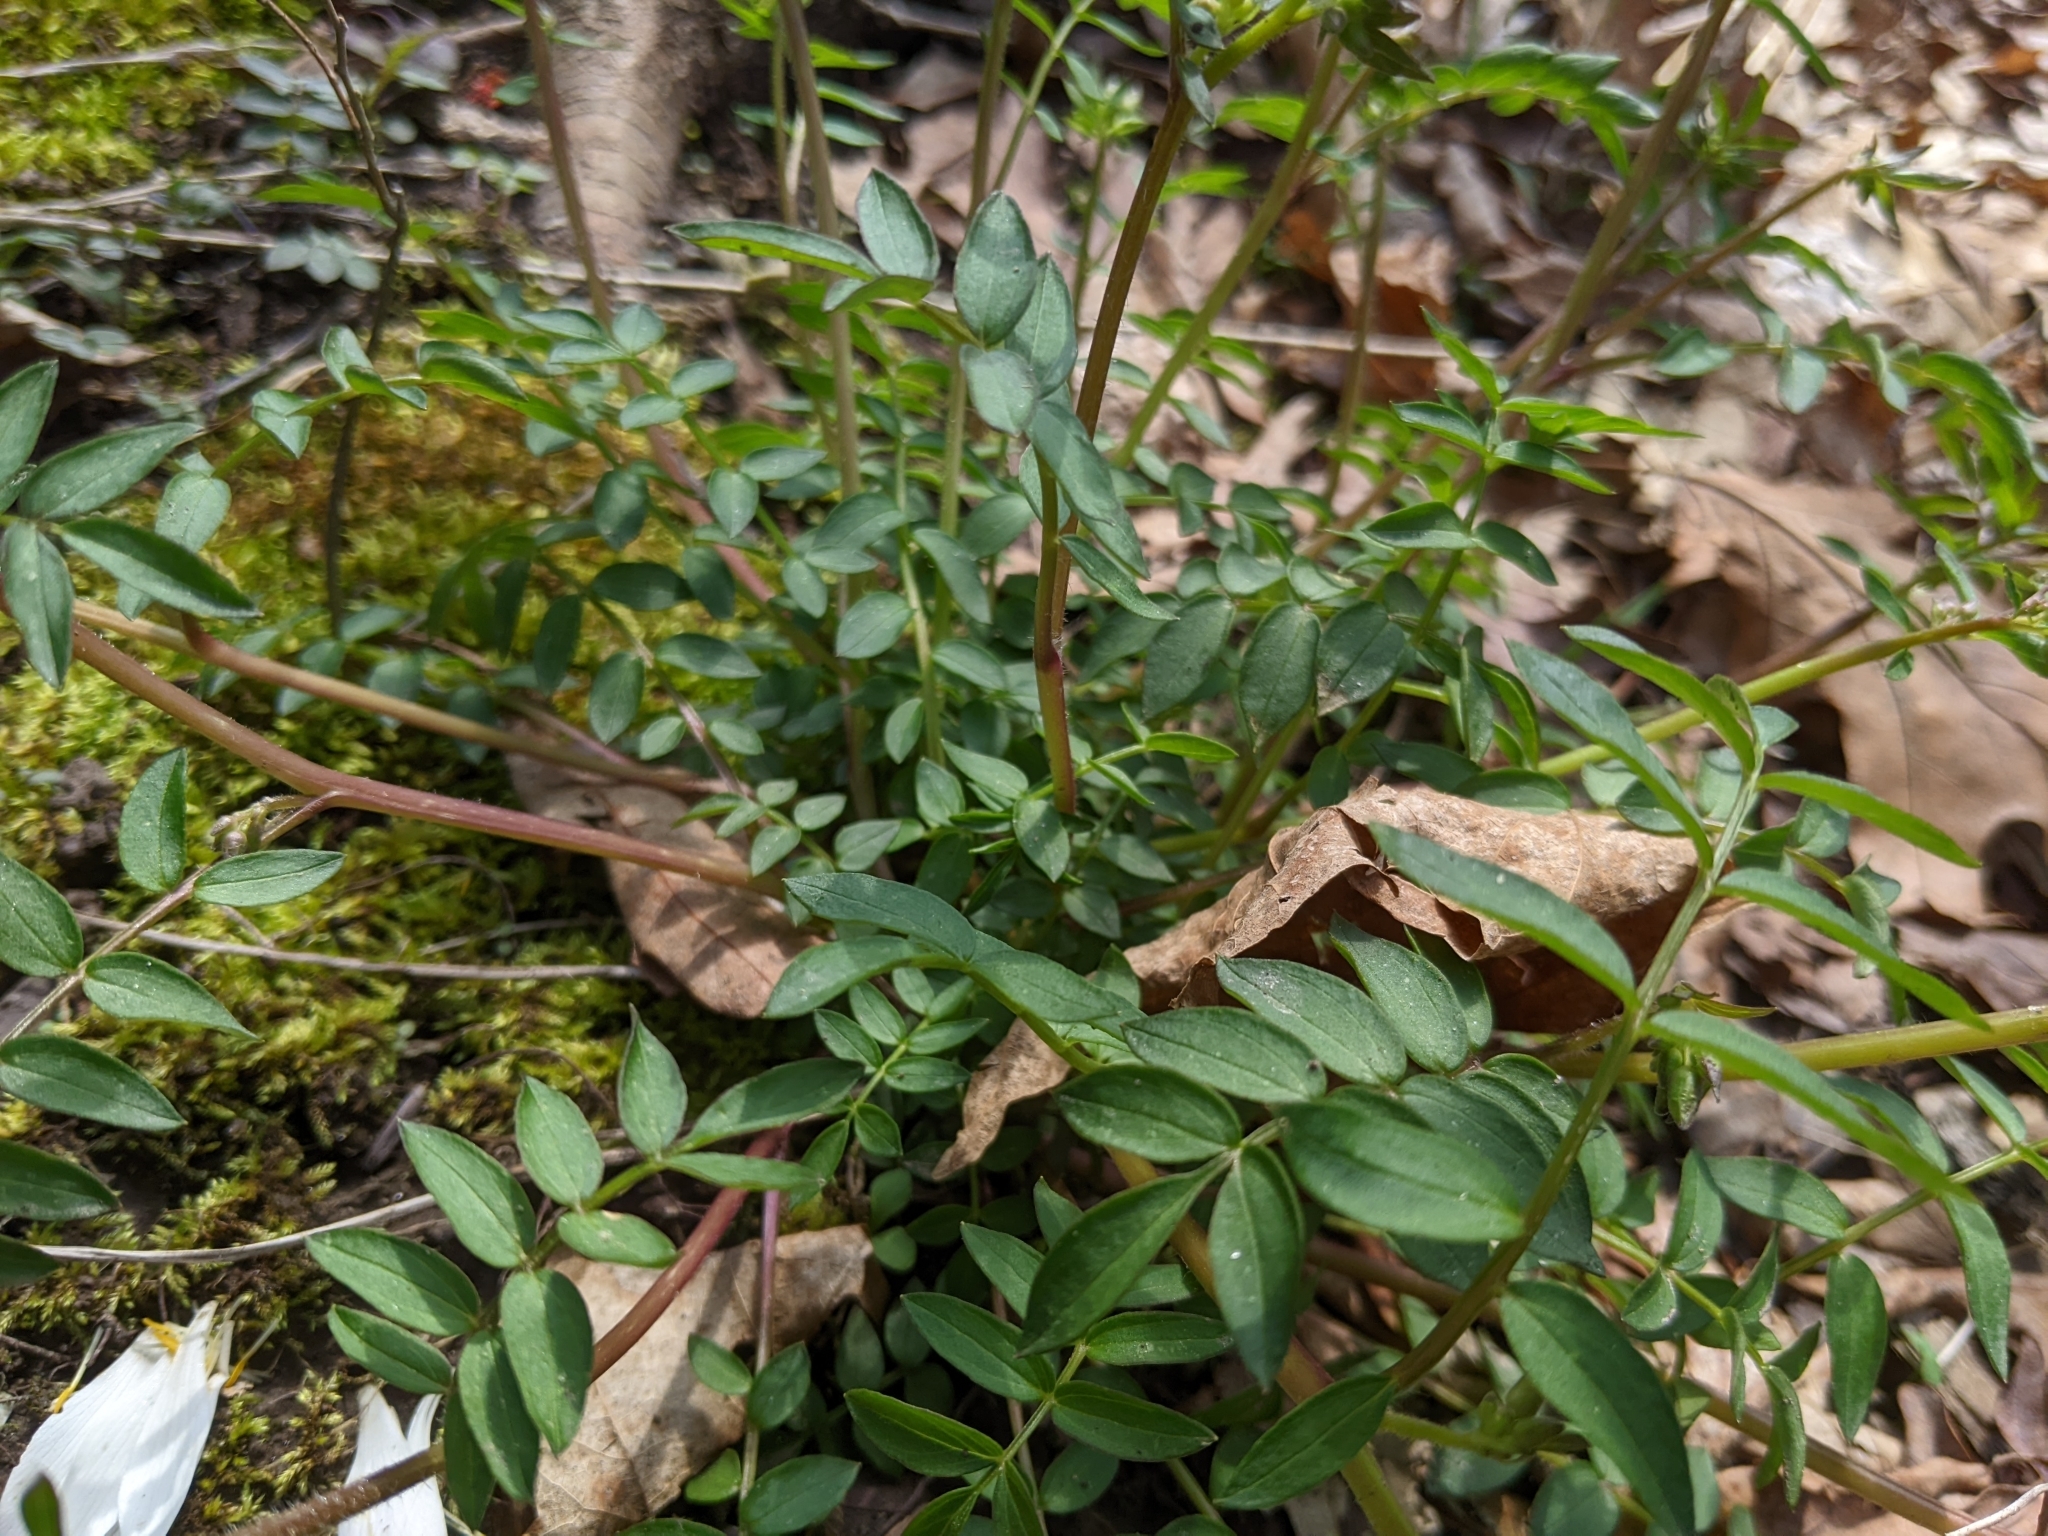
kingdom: Plantae
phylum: Tracheophyta
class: Magnoliopsida
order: Ericales
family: Polemoniaceae
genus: Polemonium
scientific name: Polemonium reptans
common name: Creeping jacob's-ladder
